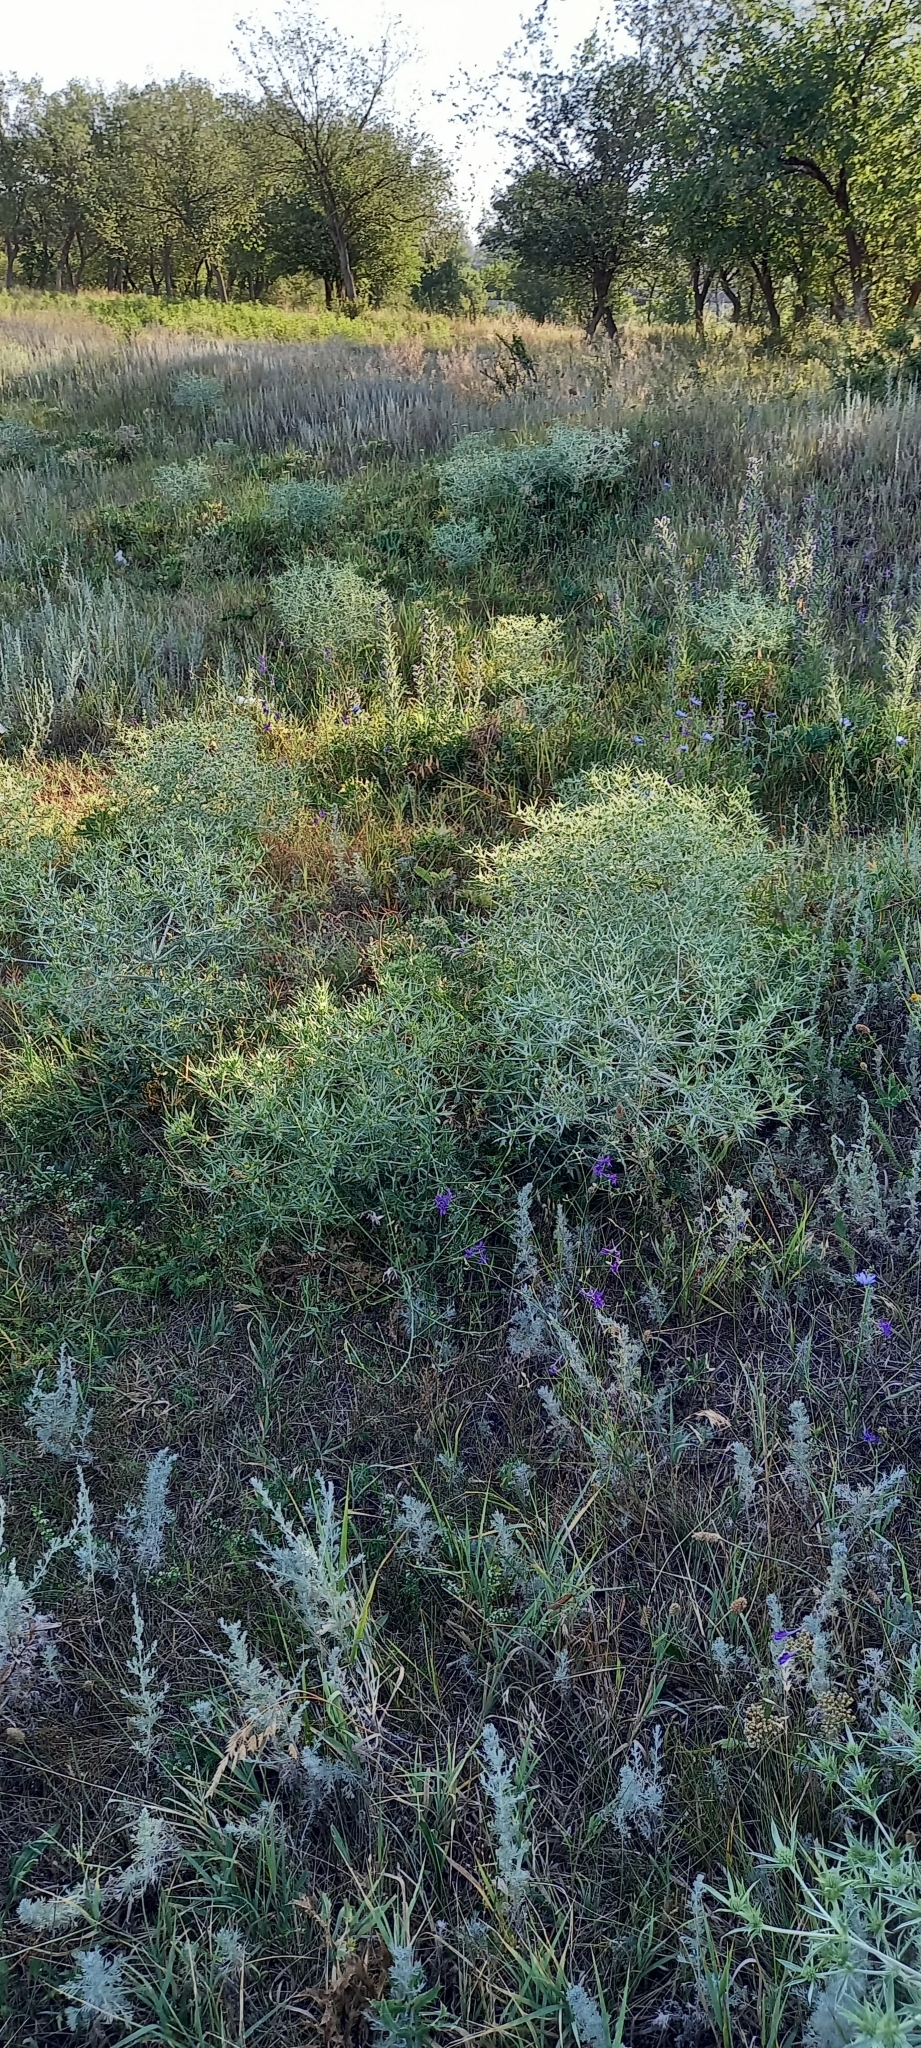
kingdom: Plantae
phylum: Tracheophyta
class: Magnoliopsida
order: Apiales
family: Apiaceae
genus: Eryngium
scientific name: Eryngium campestre
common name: Field eryngo
